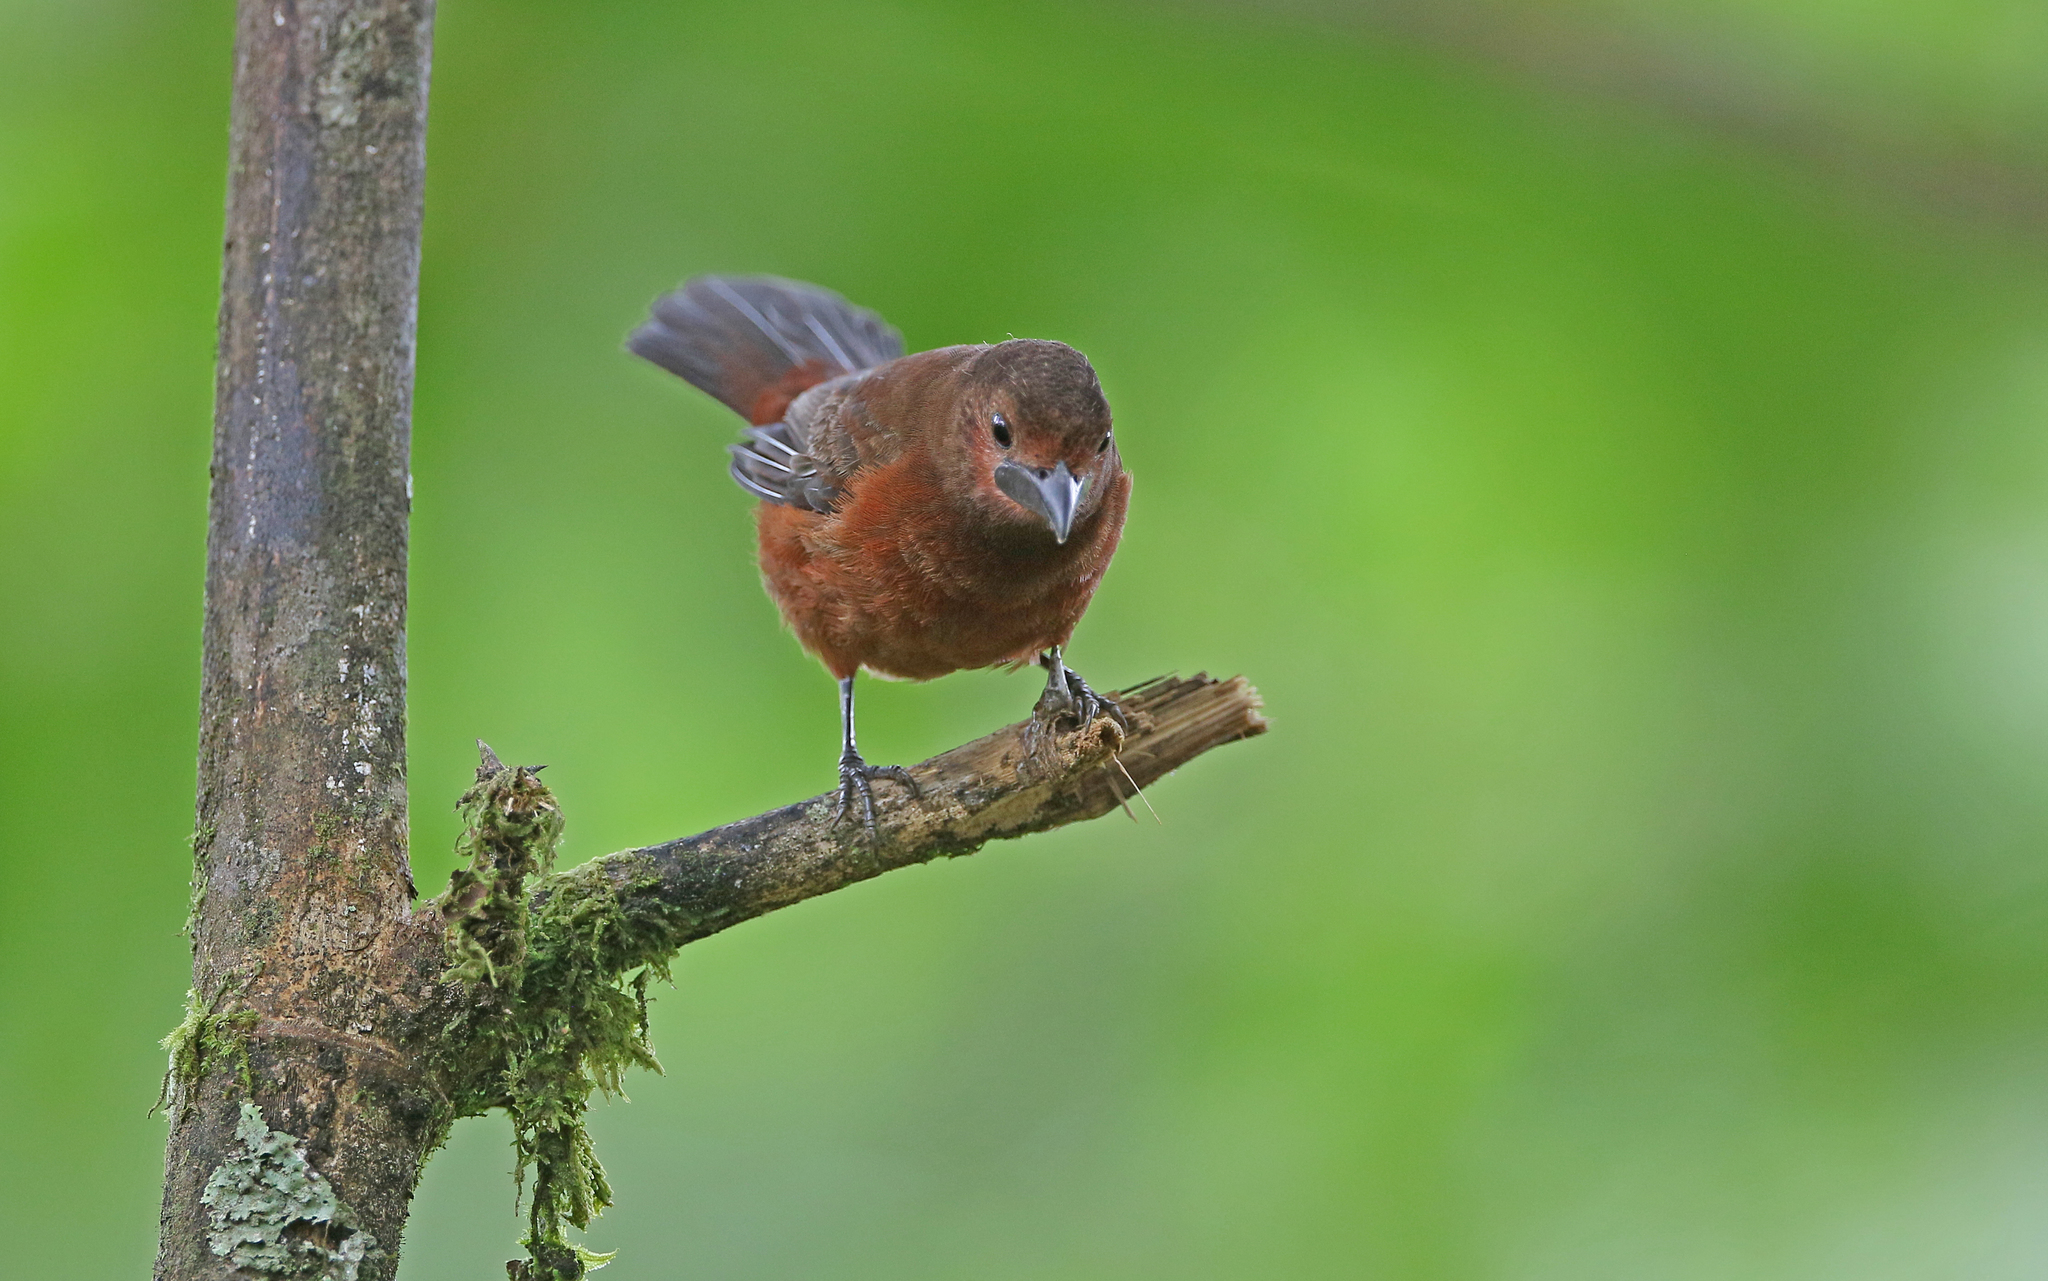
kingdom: Animalia
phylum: Chordata
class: Aves
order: Passeriformes
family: Thraupidae
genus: Ramphocelus
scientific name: Ramphocelus carbo
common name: Silver-beaked tanager
